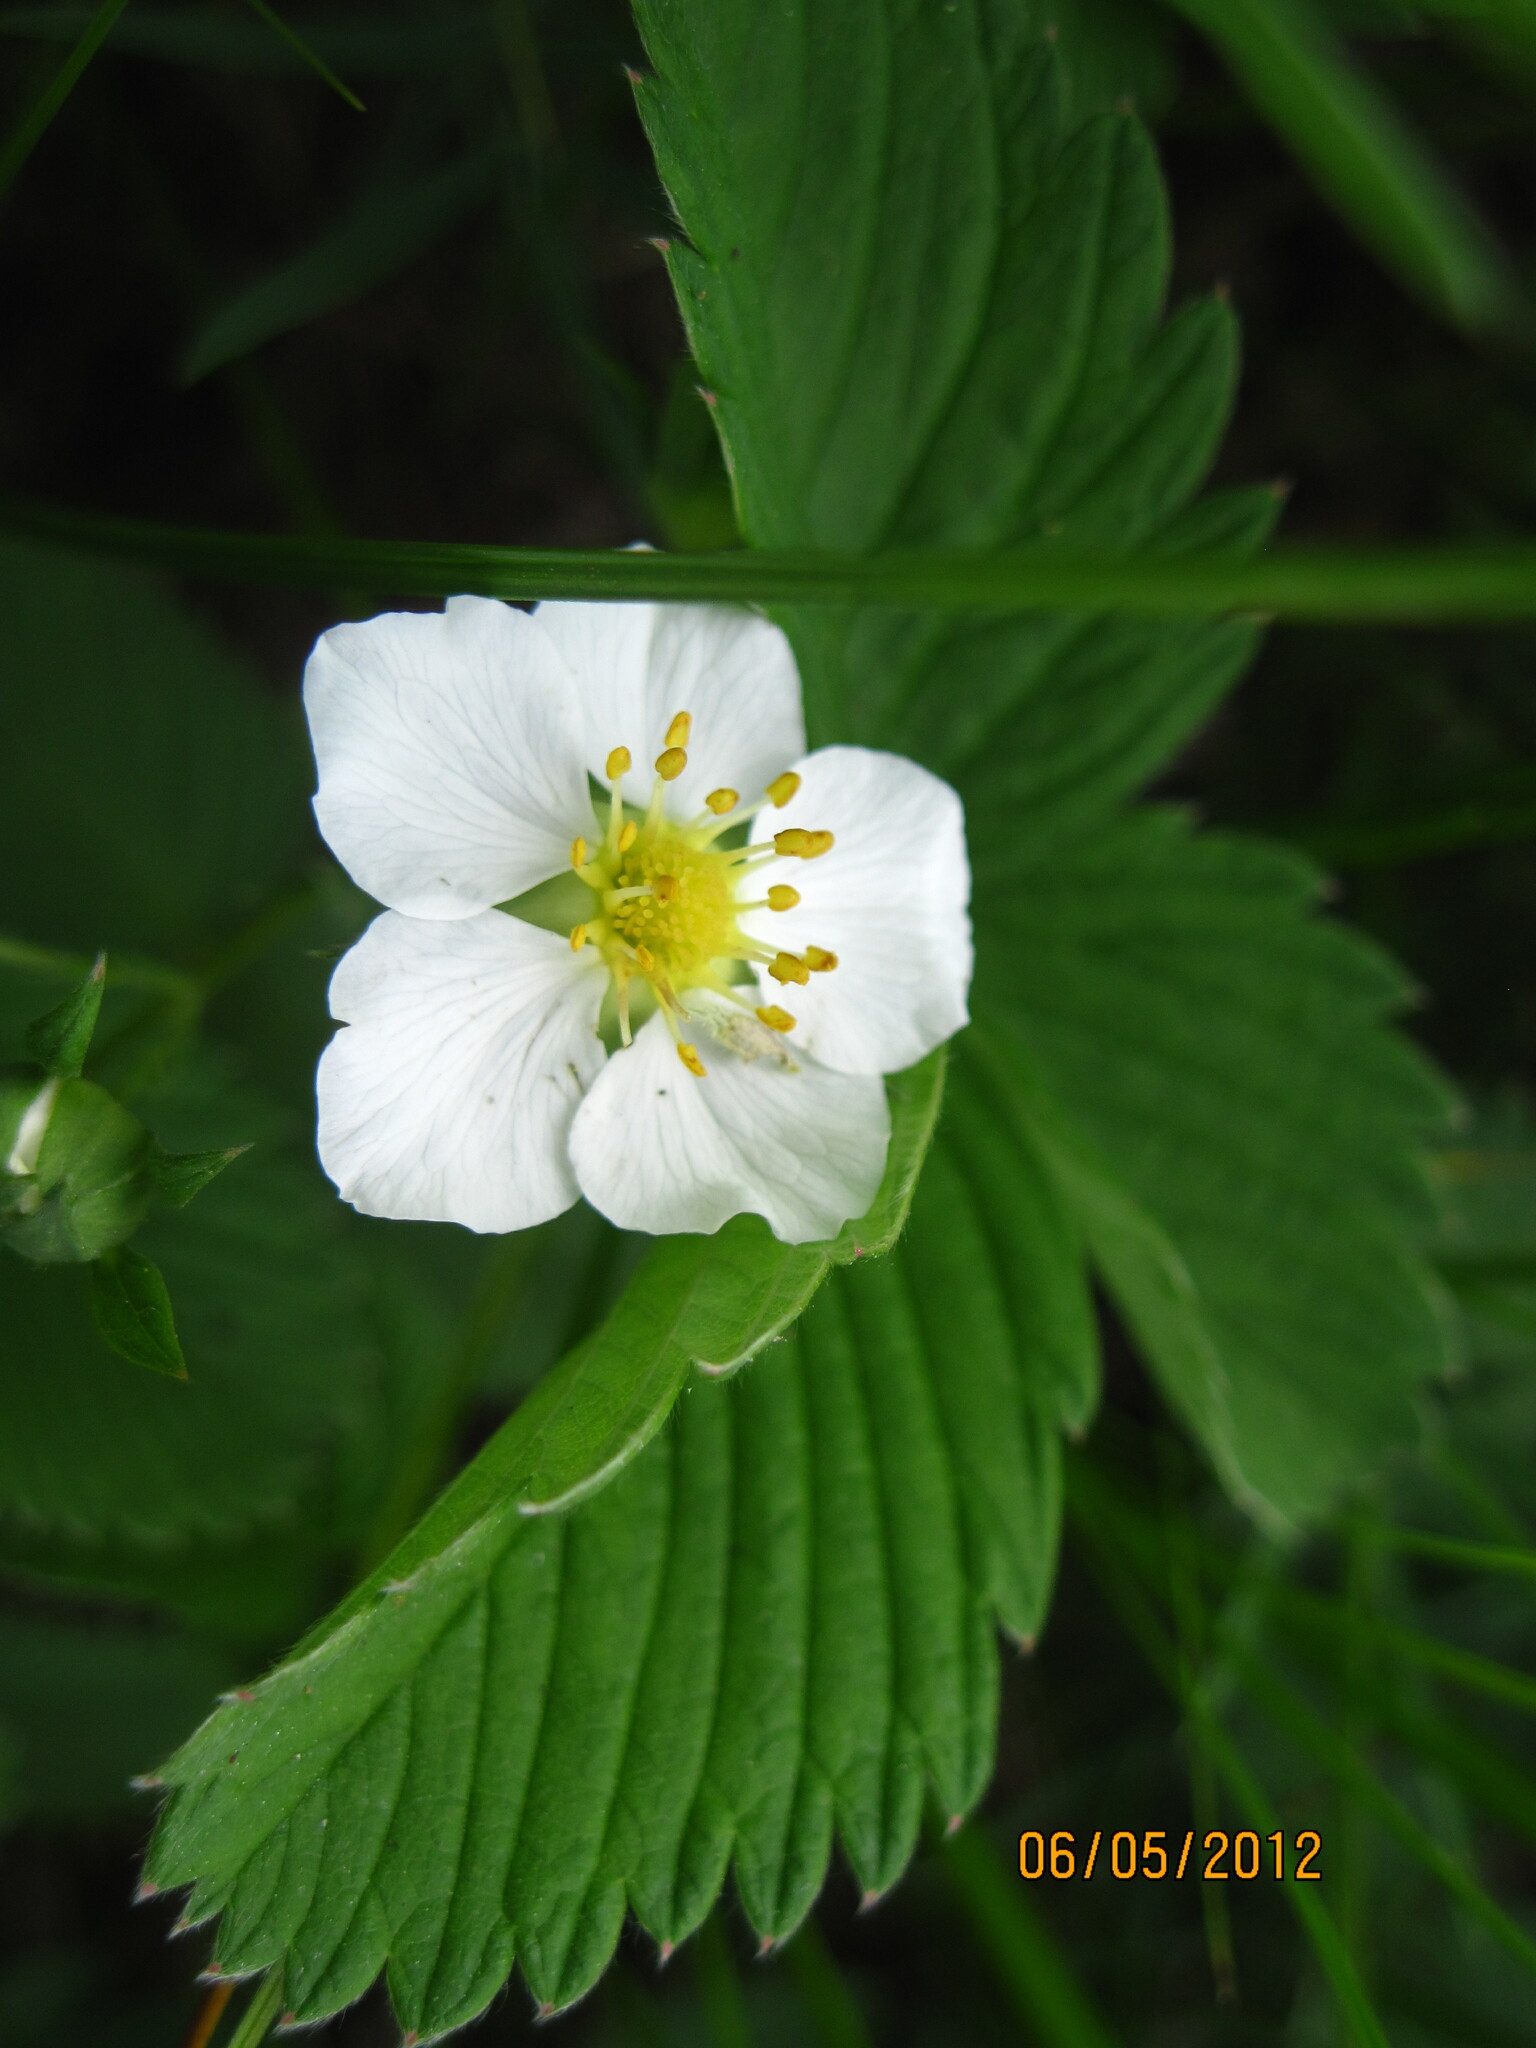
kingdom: Plantae
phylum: Tracheophyta
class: Magnoliopsida
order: Rosales
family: Rosaceae
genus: Fragaria
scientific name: Fragaria viridis
